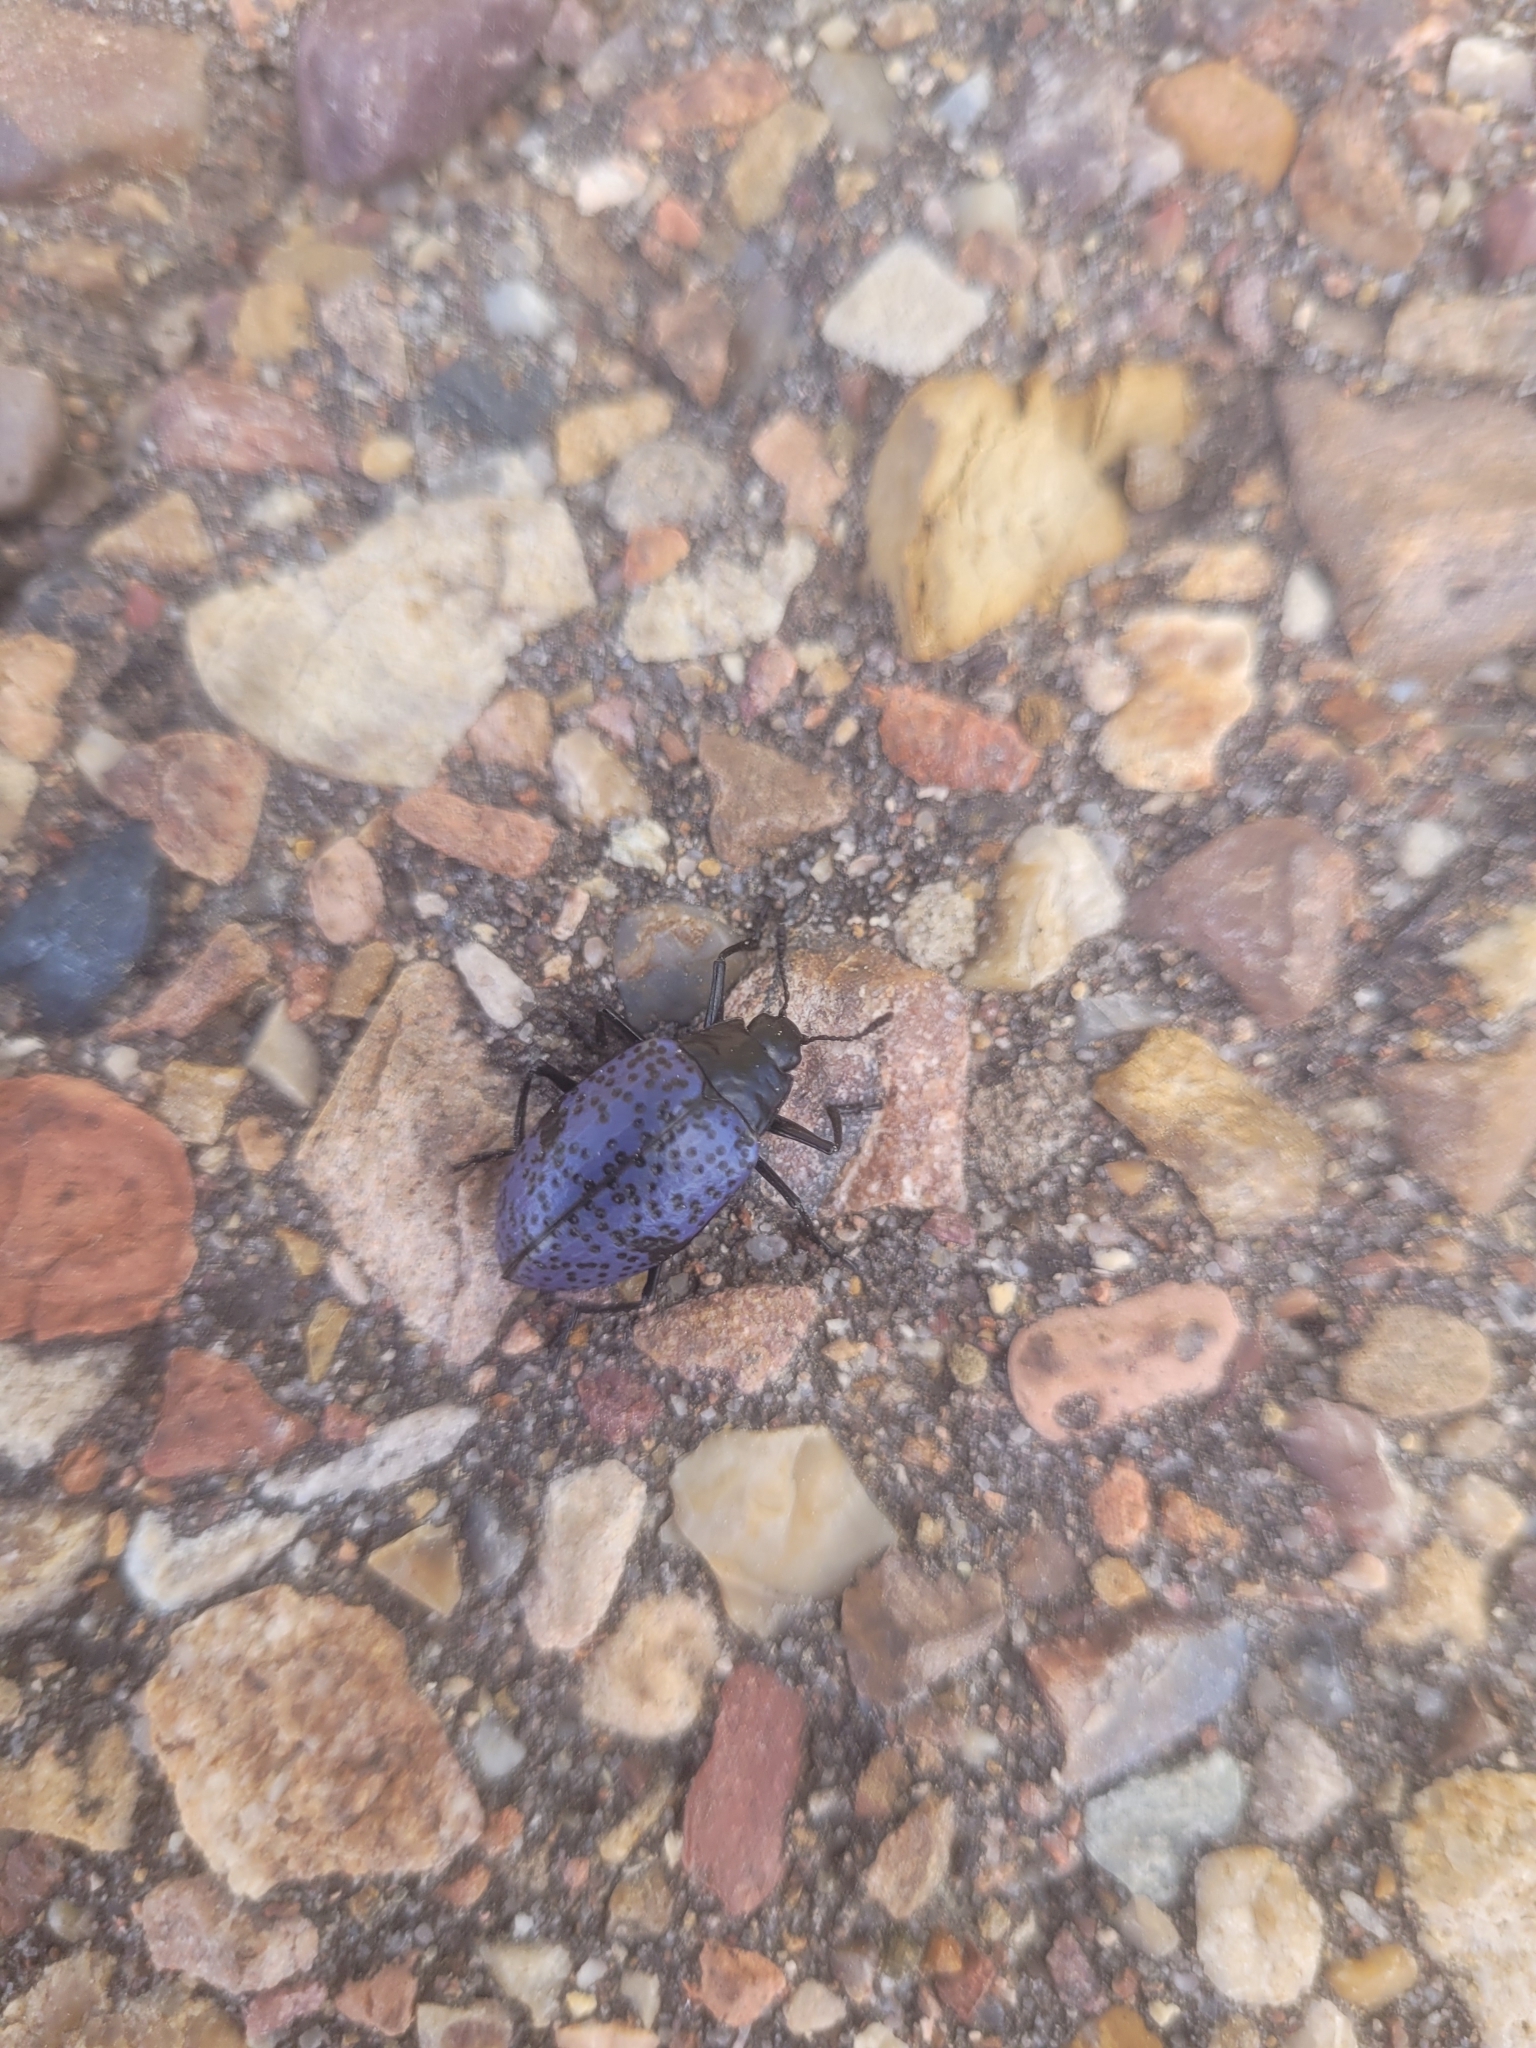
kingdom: Animalia
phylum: Arthropoda
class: Insecta
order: Coleoptera
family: Erotylidae
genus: Gibbifer
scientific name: Gibbifer californicus
